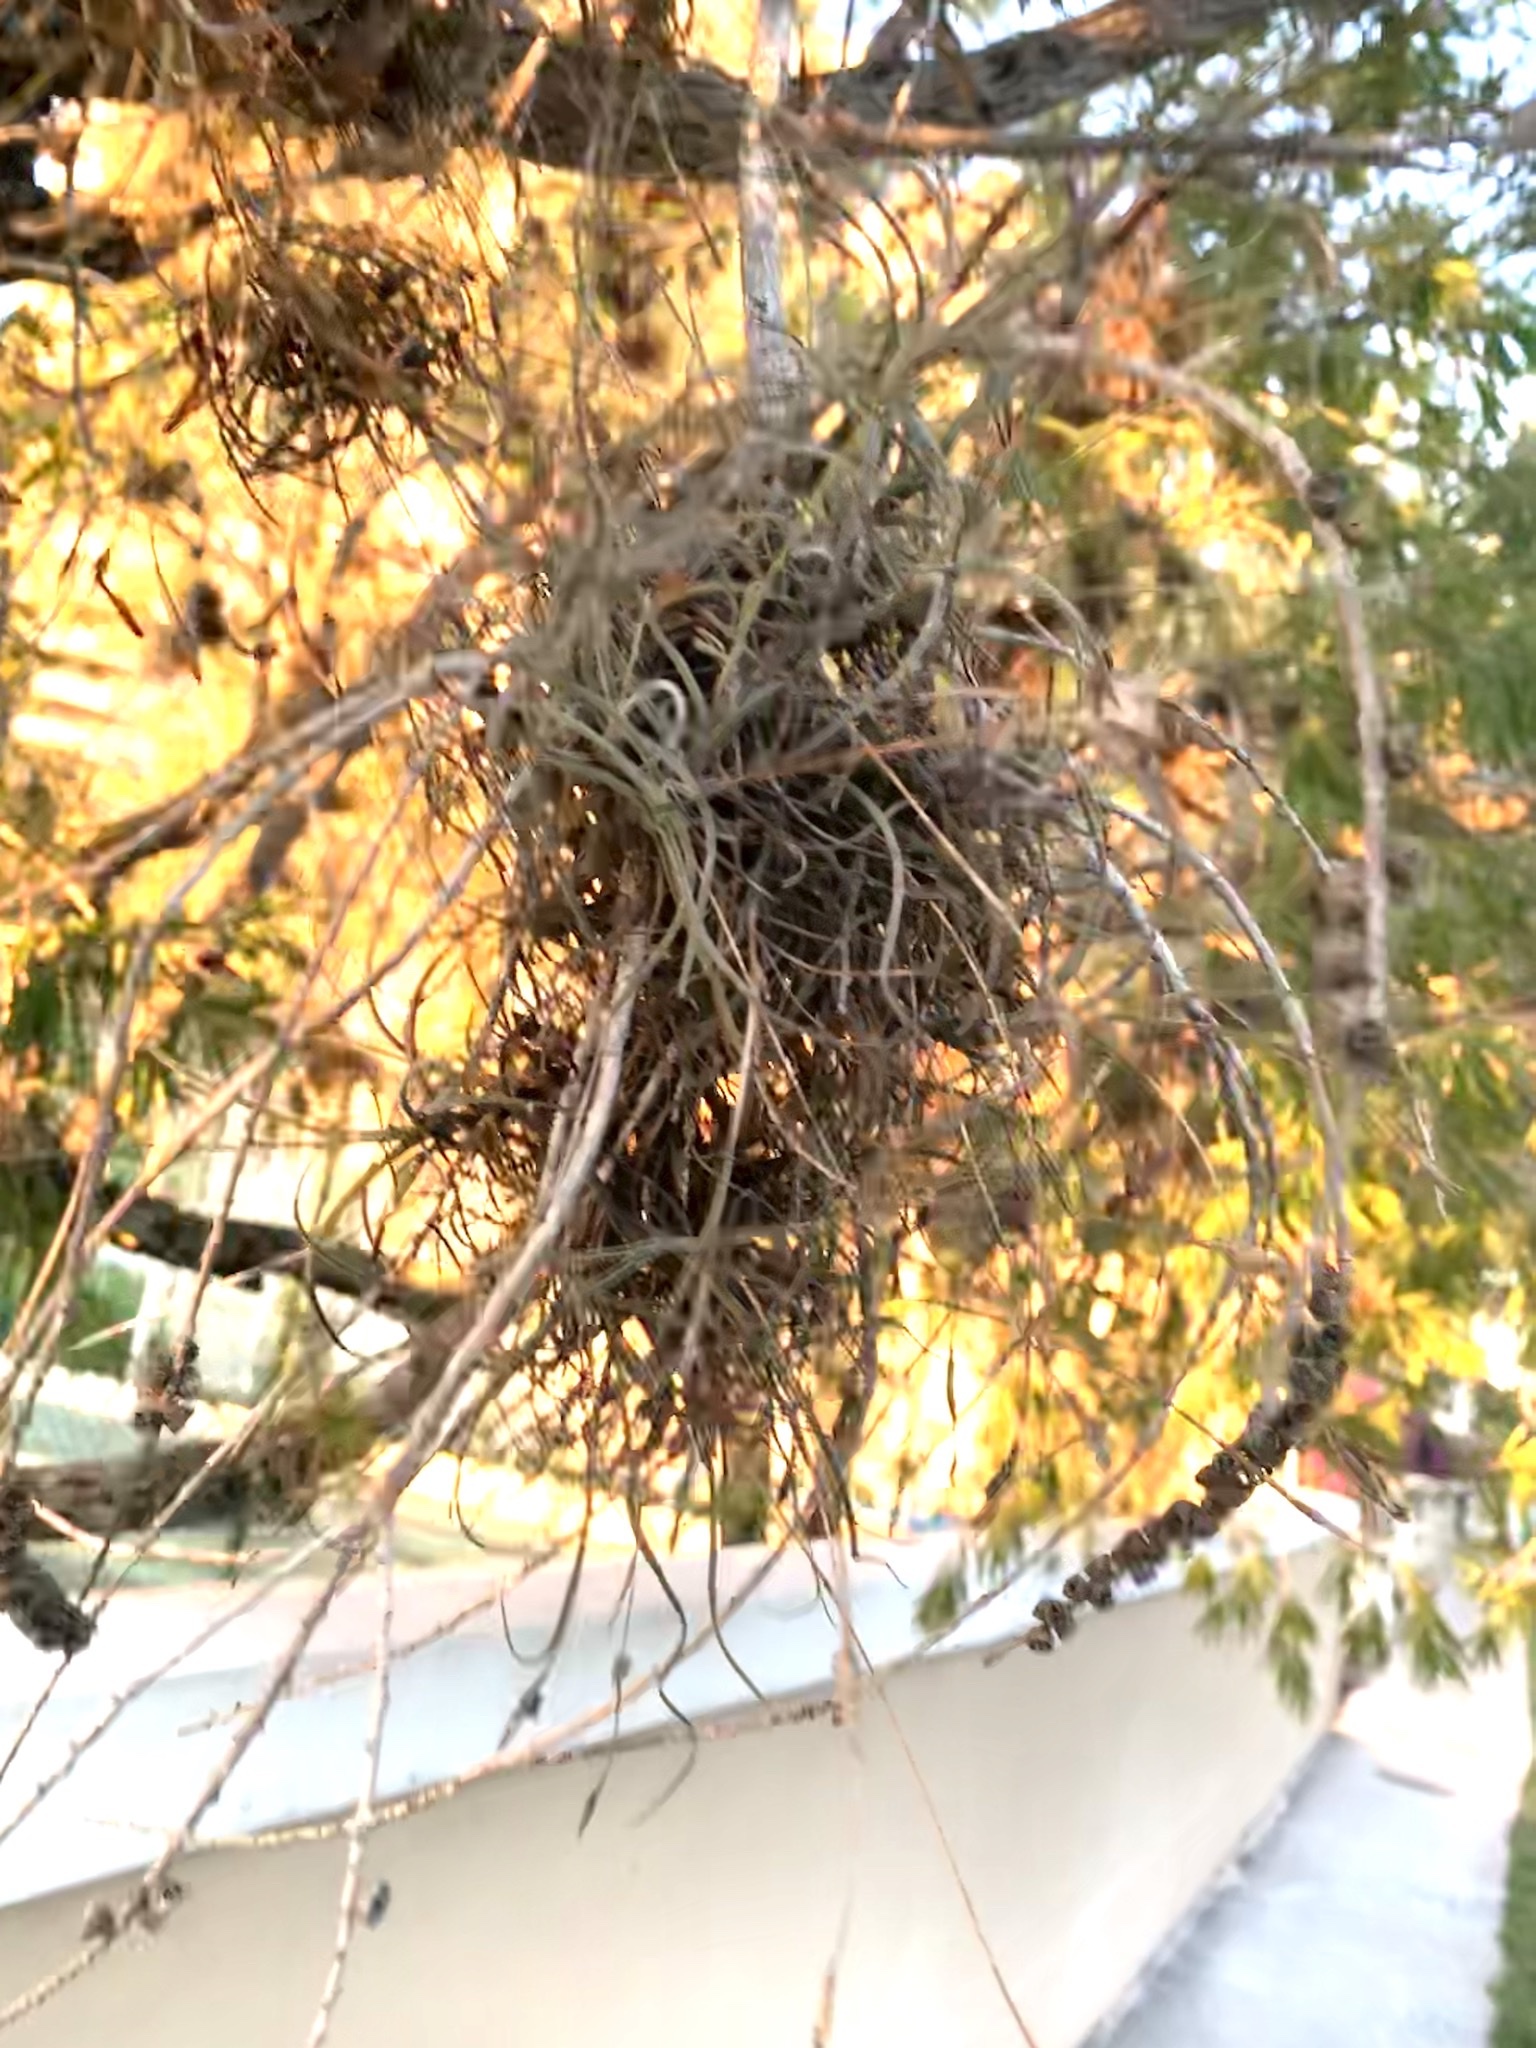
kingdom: Plantae
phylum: Tracheophyta
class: Liliopsida
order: Poales
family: Bromeliaceae
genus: Tillandsia
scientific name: Tillandsia recurvata
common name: Small ballmoss
